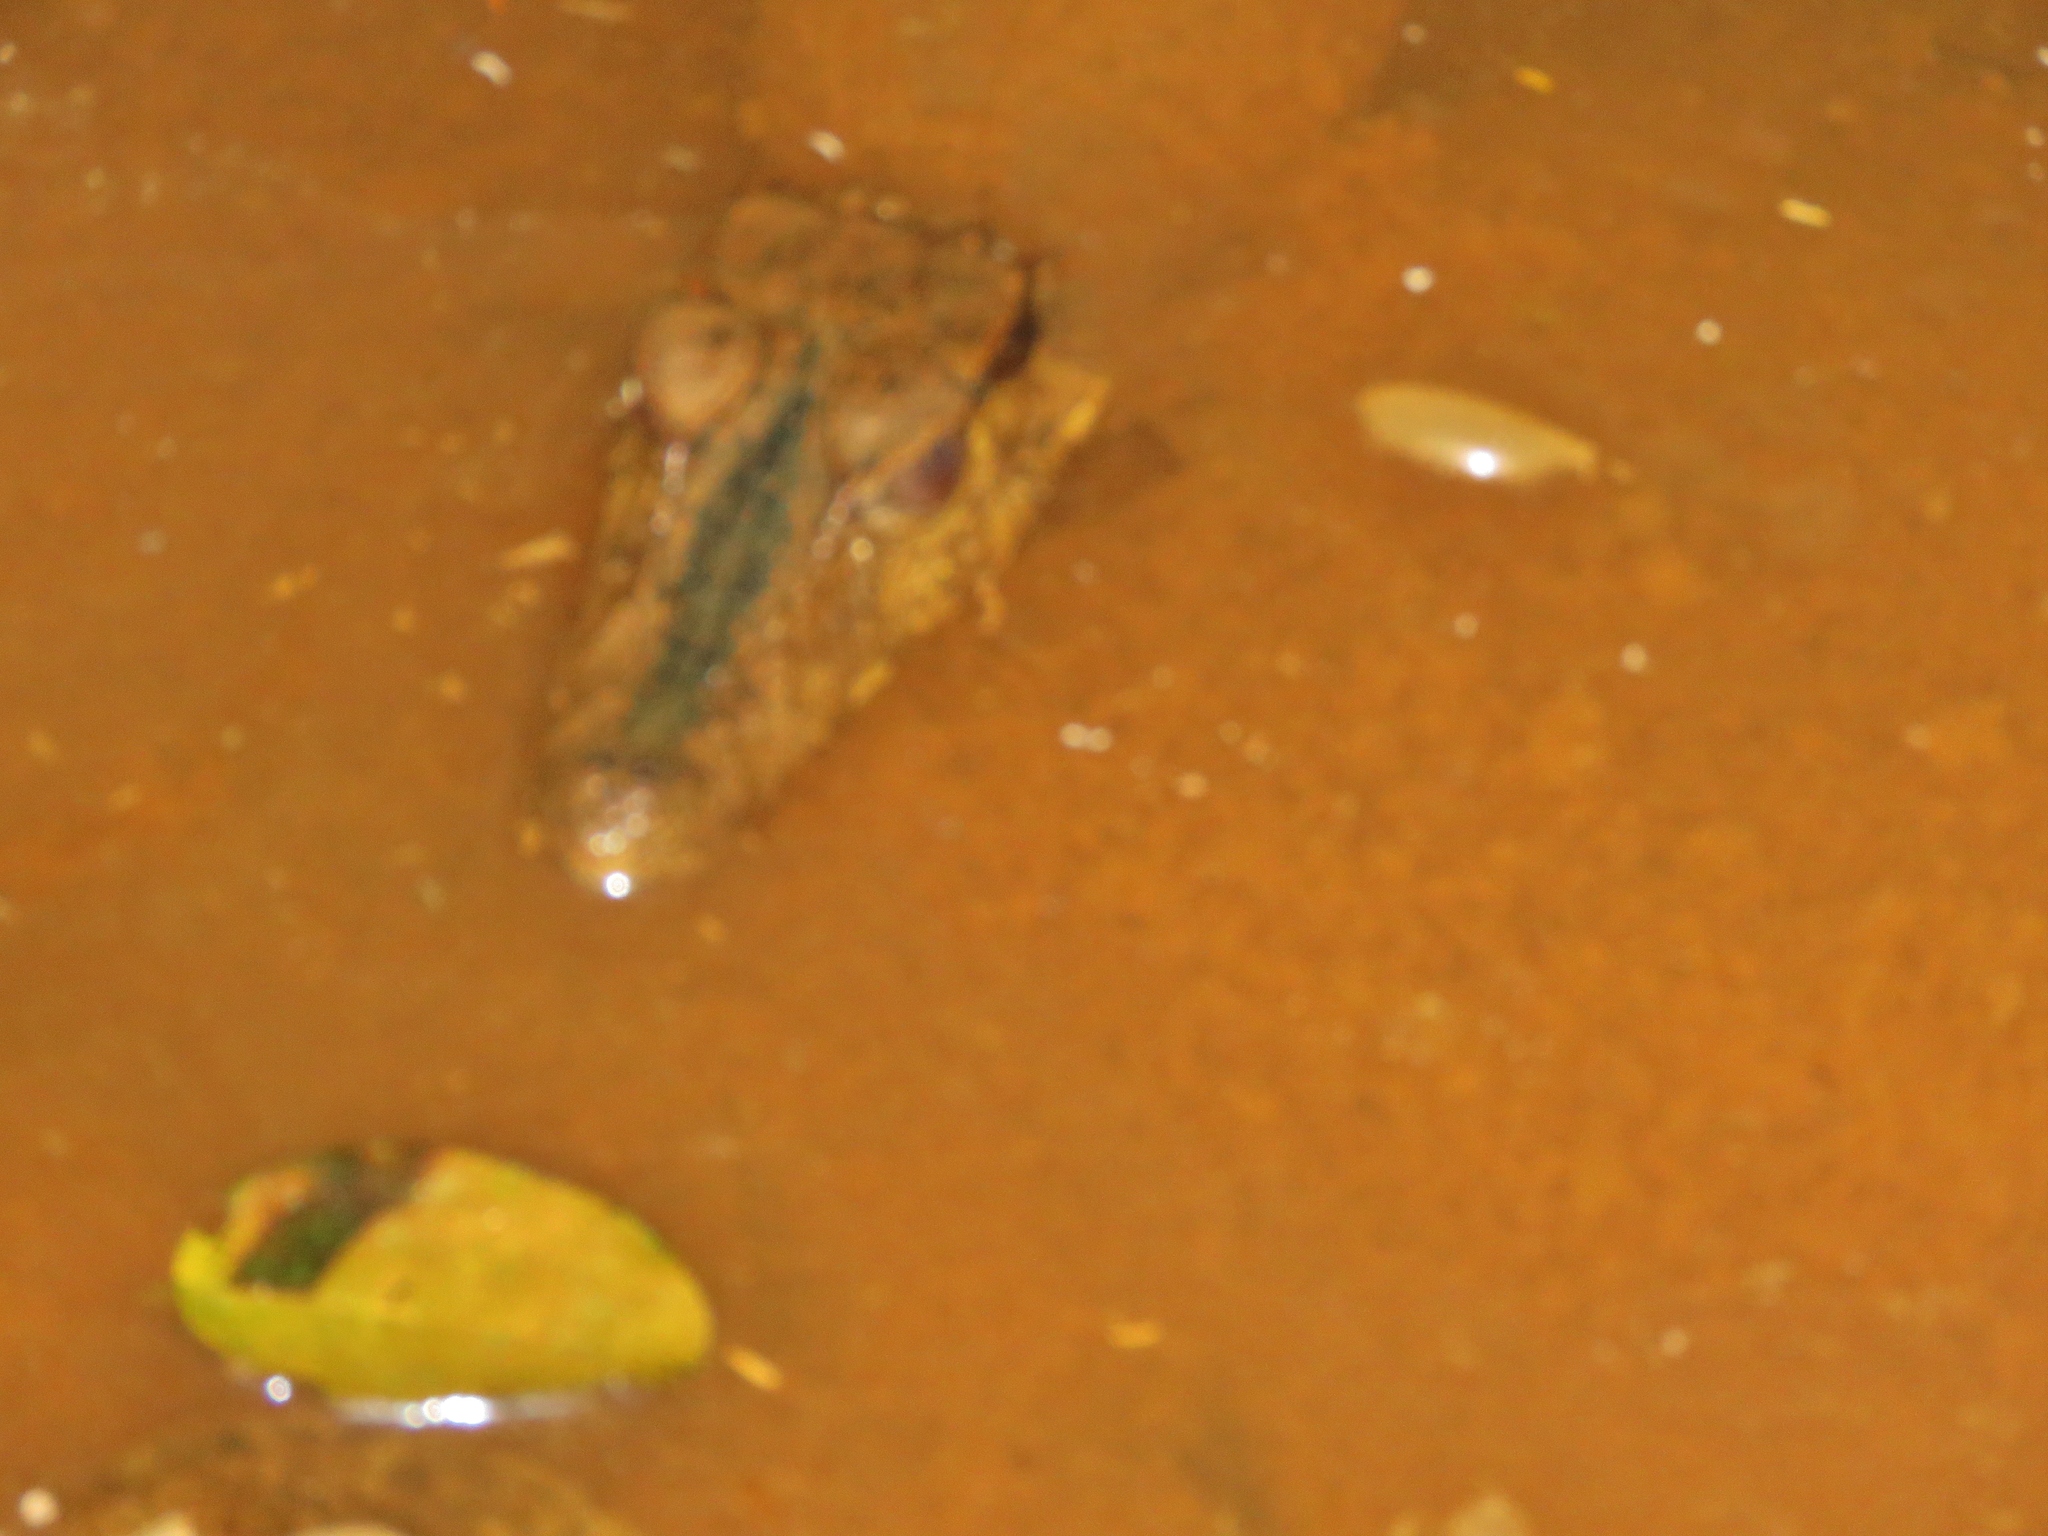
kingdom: Animalia
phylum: Chordata
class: Crocodylia
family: Alligatoridae
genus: Paleosuchus
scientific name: Paleosuchus palpebrosus
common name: Cuvier's smooth-fronted caiman
